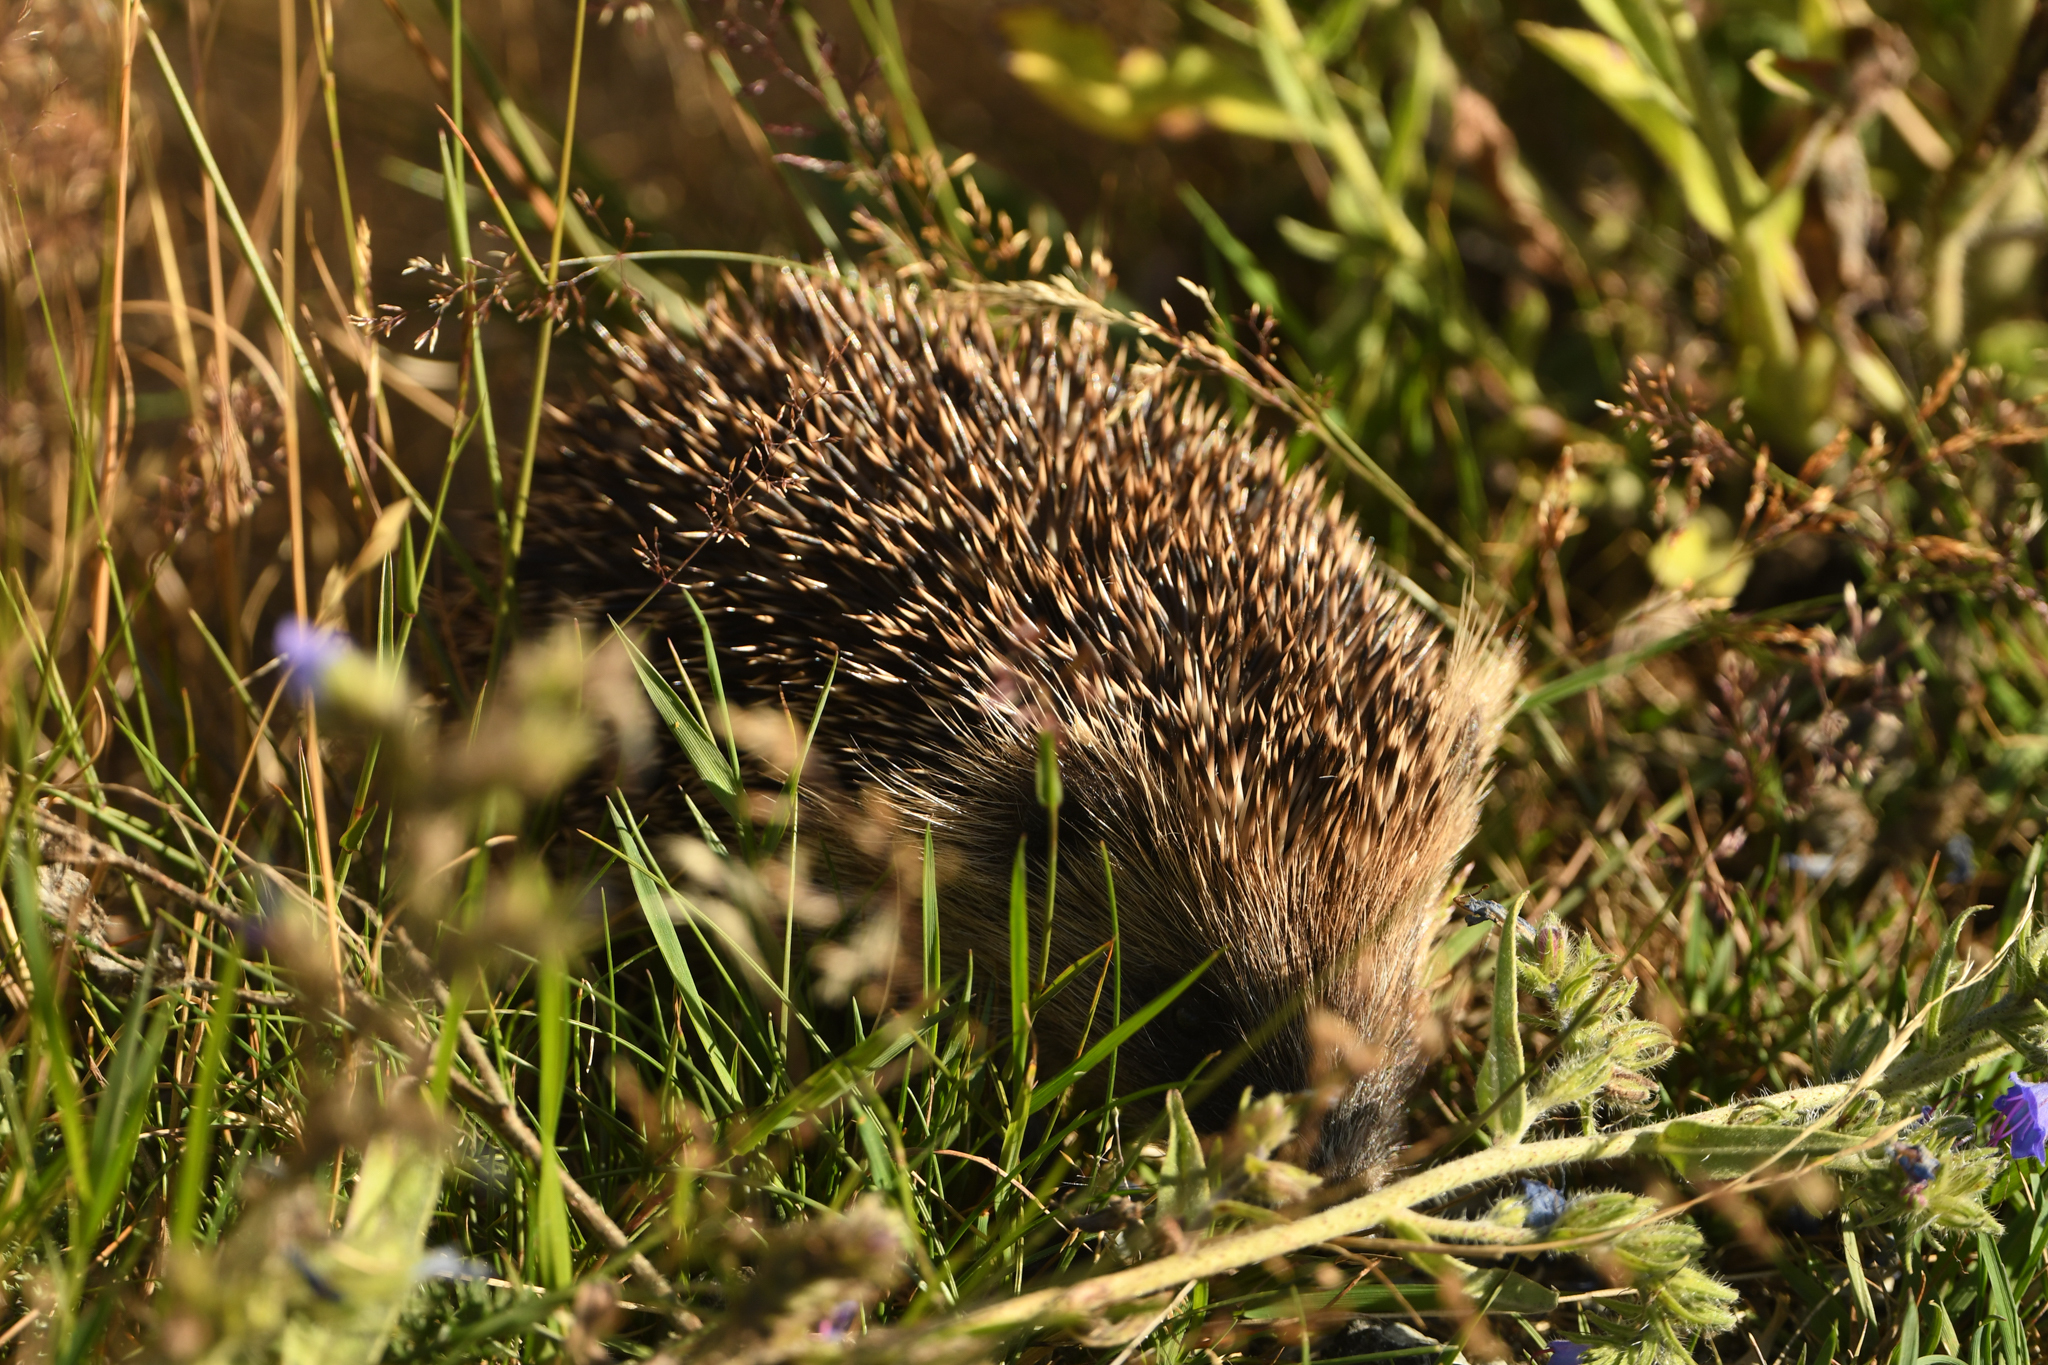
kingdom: Animalia
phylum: Chordata
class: Mammalia
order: Erinaceomorpha
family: Erinaceidae
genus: Erinaceus
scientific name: Erinaceus europaeus
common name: West european hedgehog
